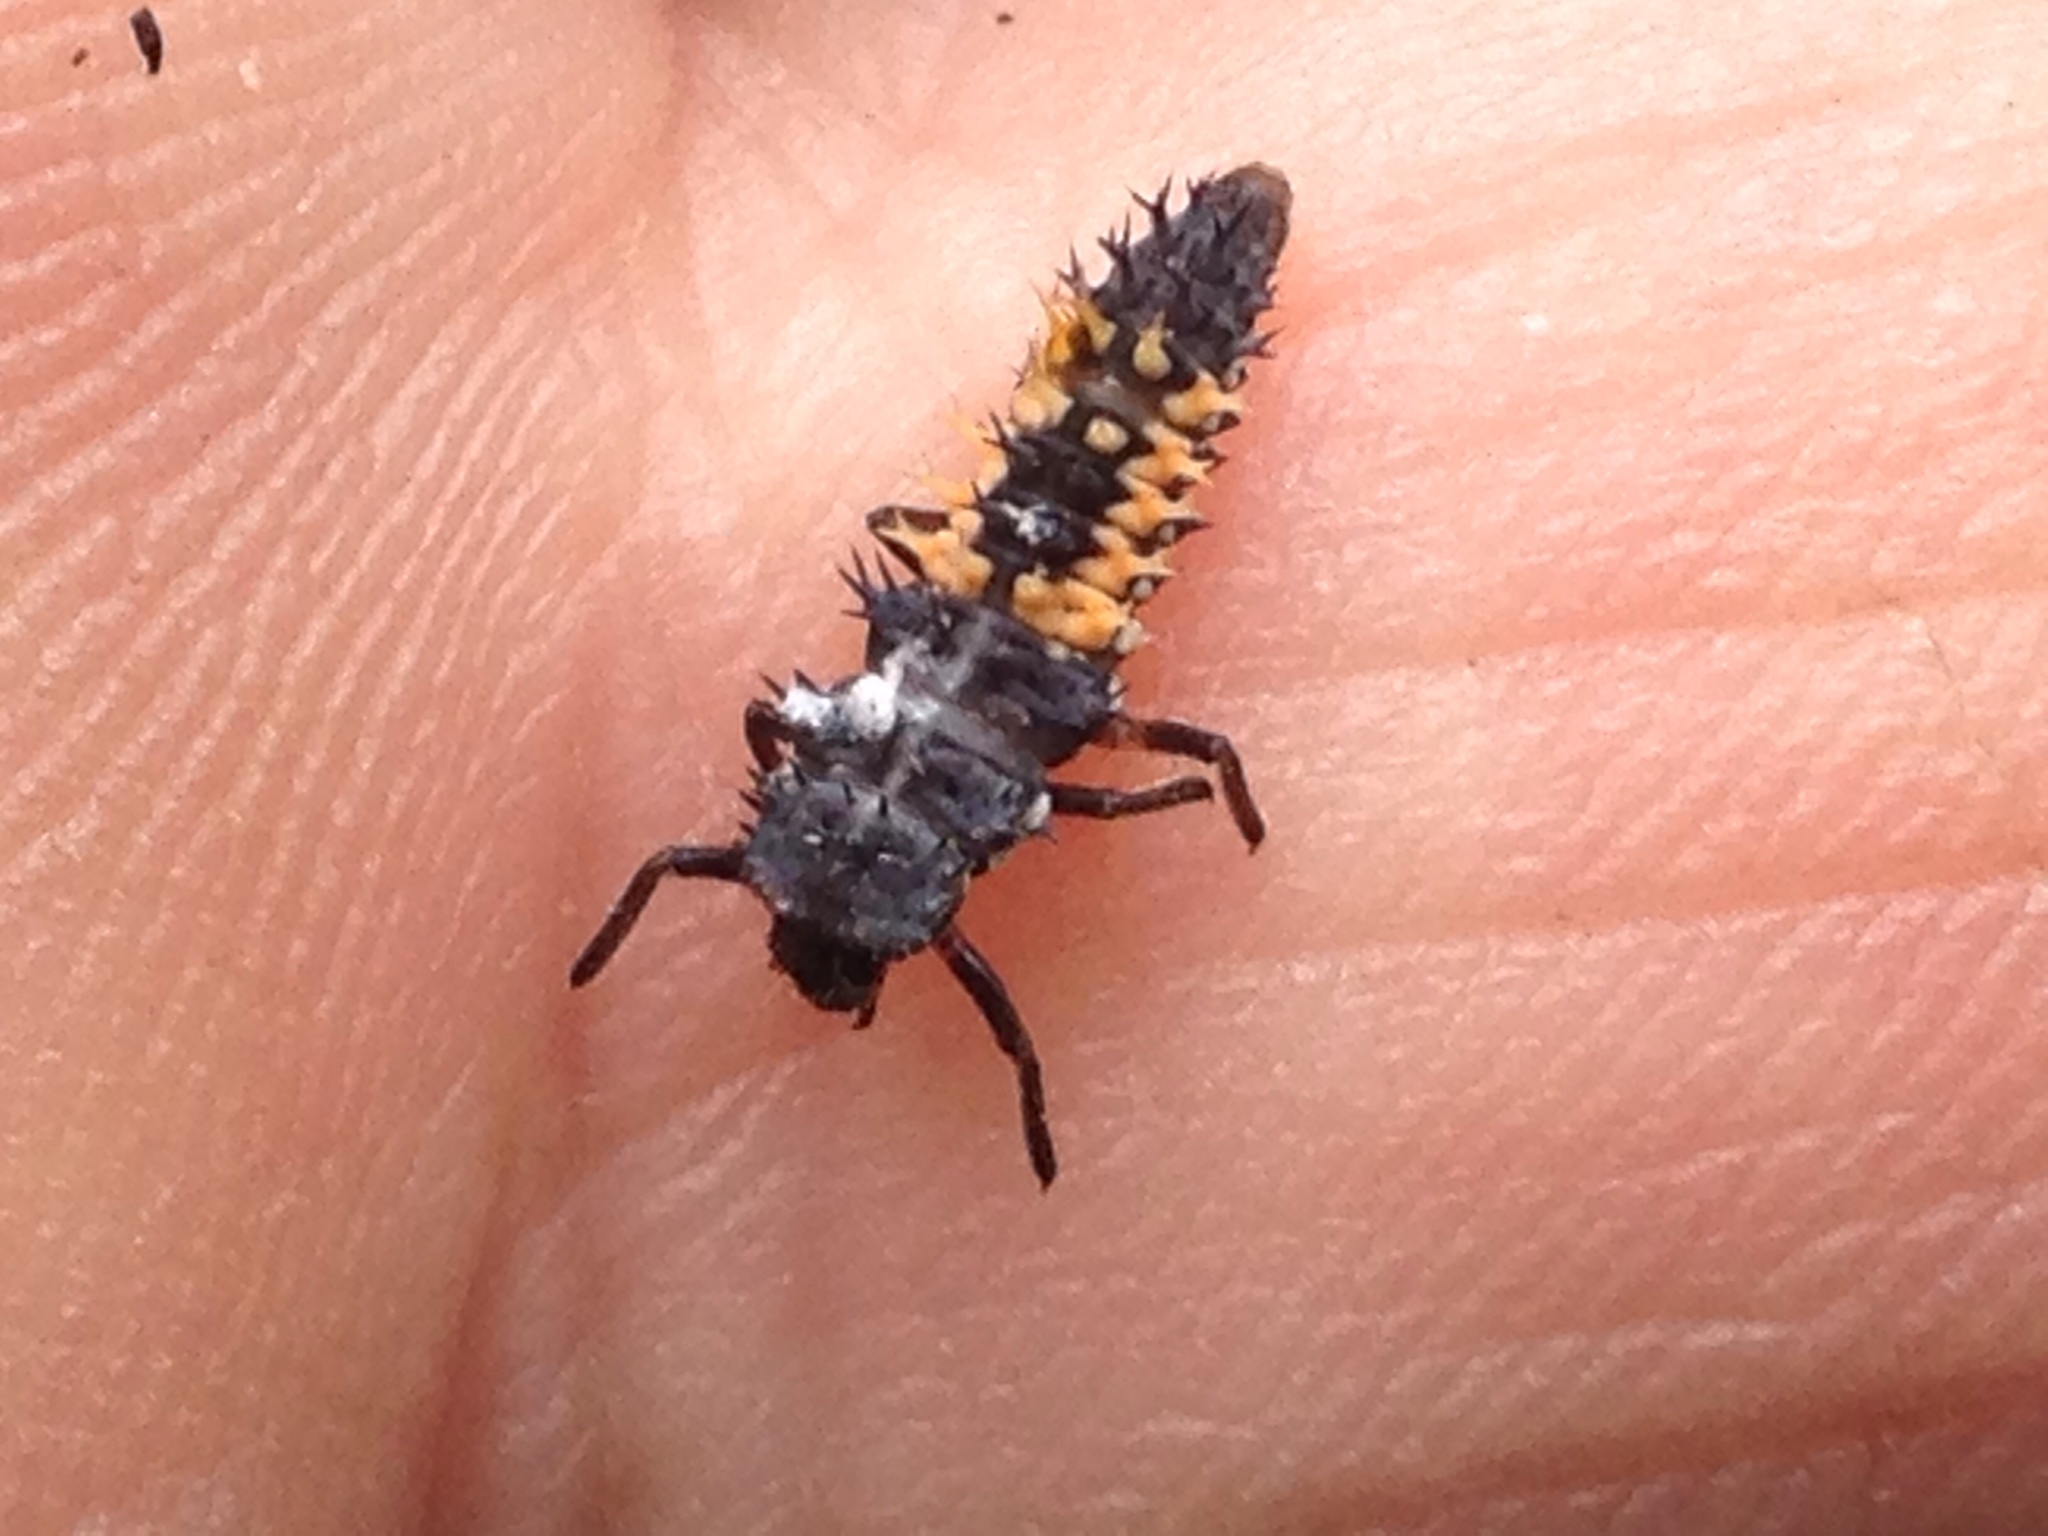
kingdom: Animalia
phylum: Arthropoda
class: Insecta
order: Coleoptera
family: Coccinellidae
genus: Harmonia
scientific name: Harmonia axyridis
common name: Harlequin ladybird
